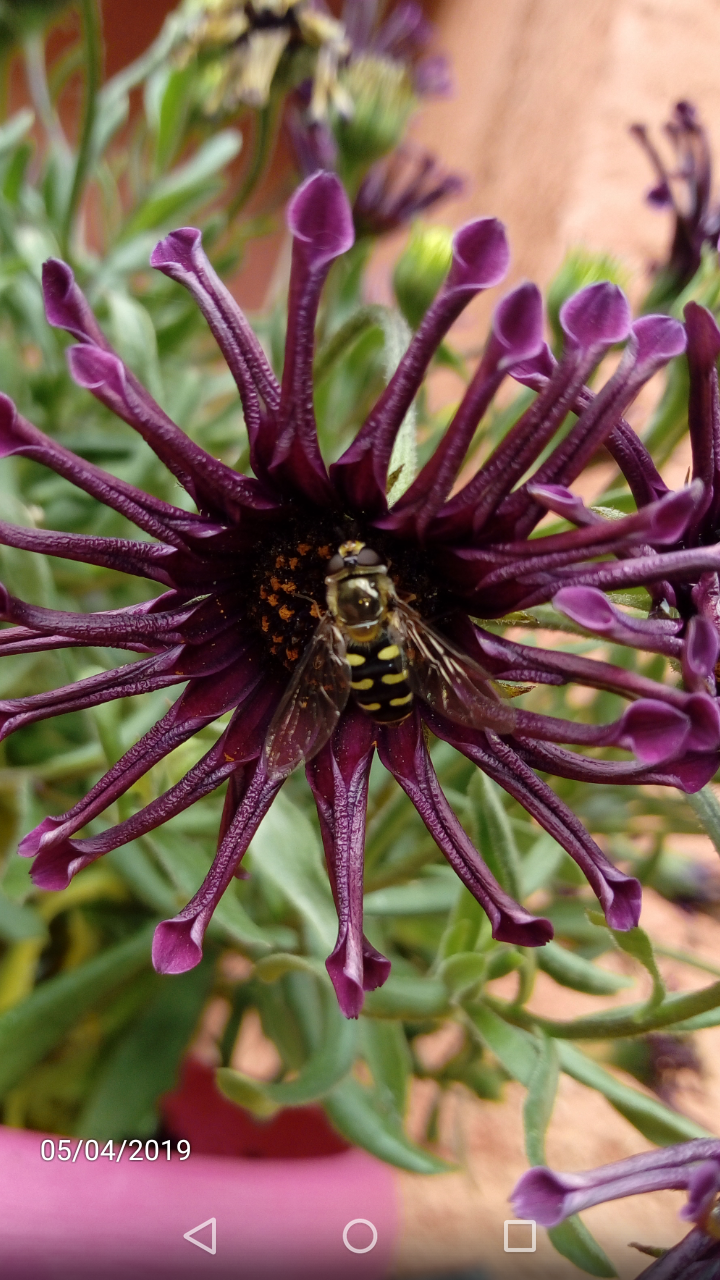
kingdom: Animalia
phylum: Arthropoda
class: Insecta
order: Diptera
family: Syrphidae
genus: Eupeodes
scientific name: Eupeodes luniger
